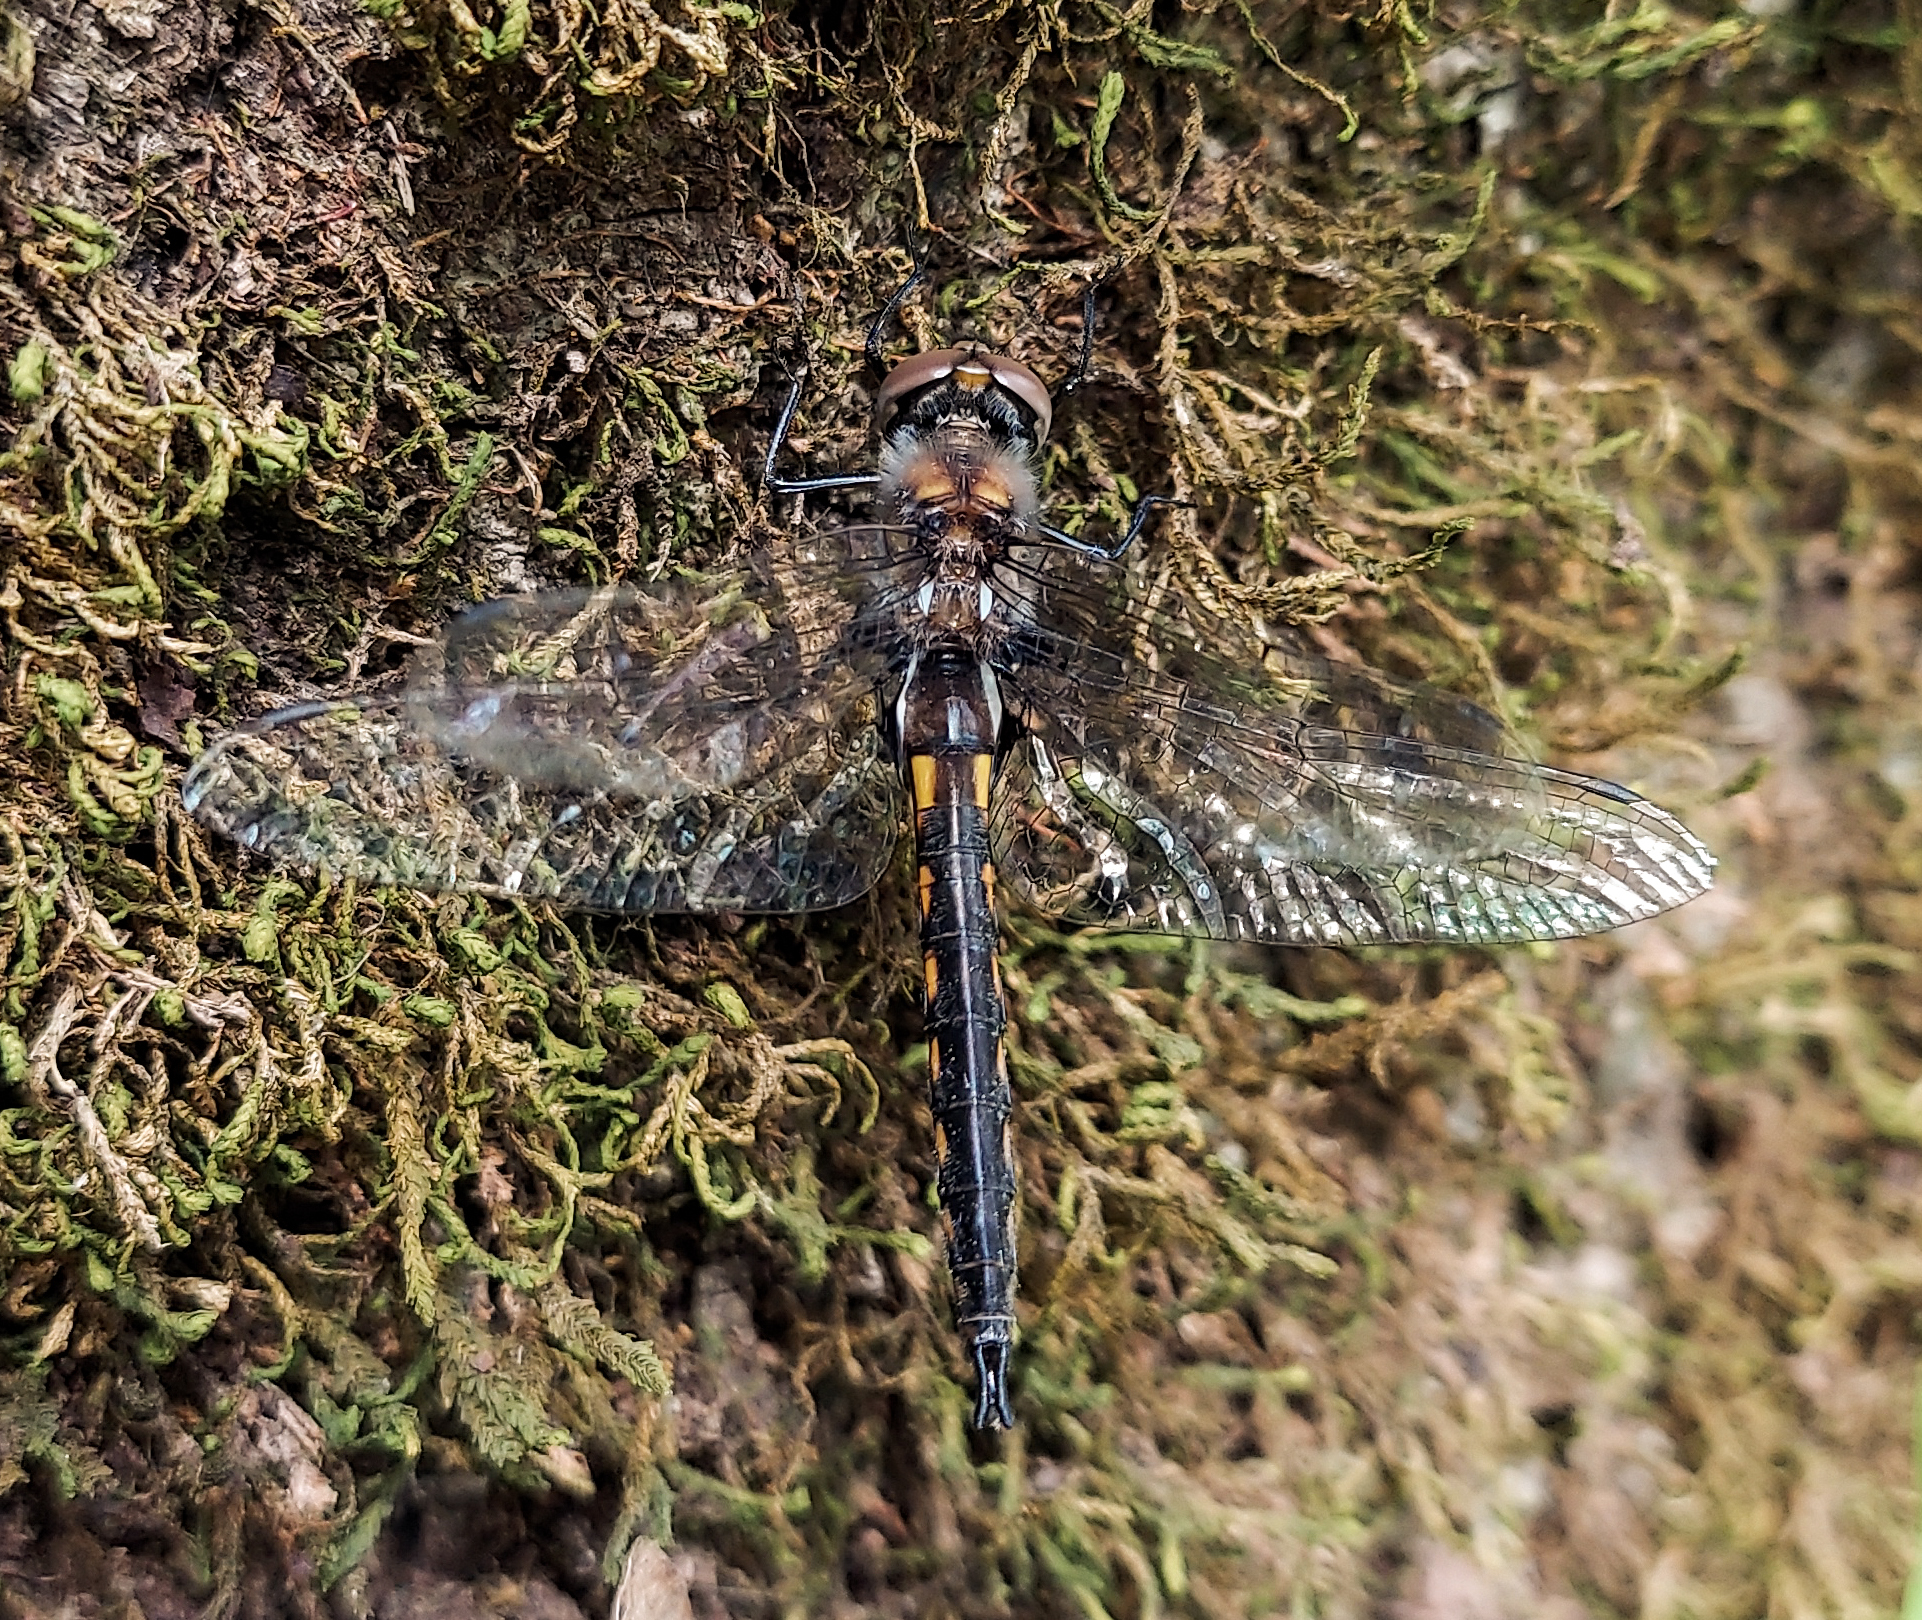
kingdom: Animalia
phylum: Arthropoda
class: Insecta
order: Odonata
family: Corduliidae
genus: Epitheca
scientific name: Epitheca cynosura
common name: Common baskettail
